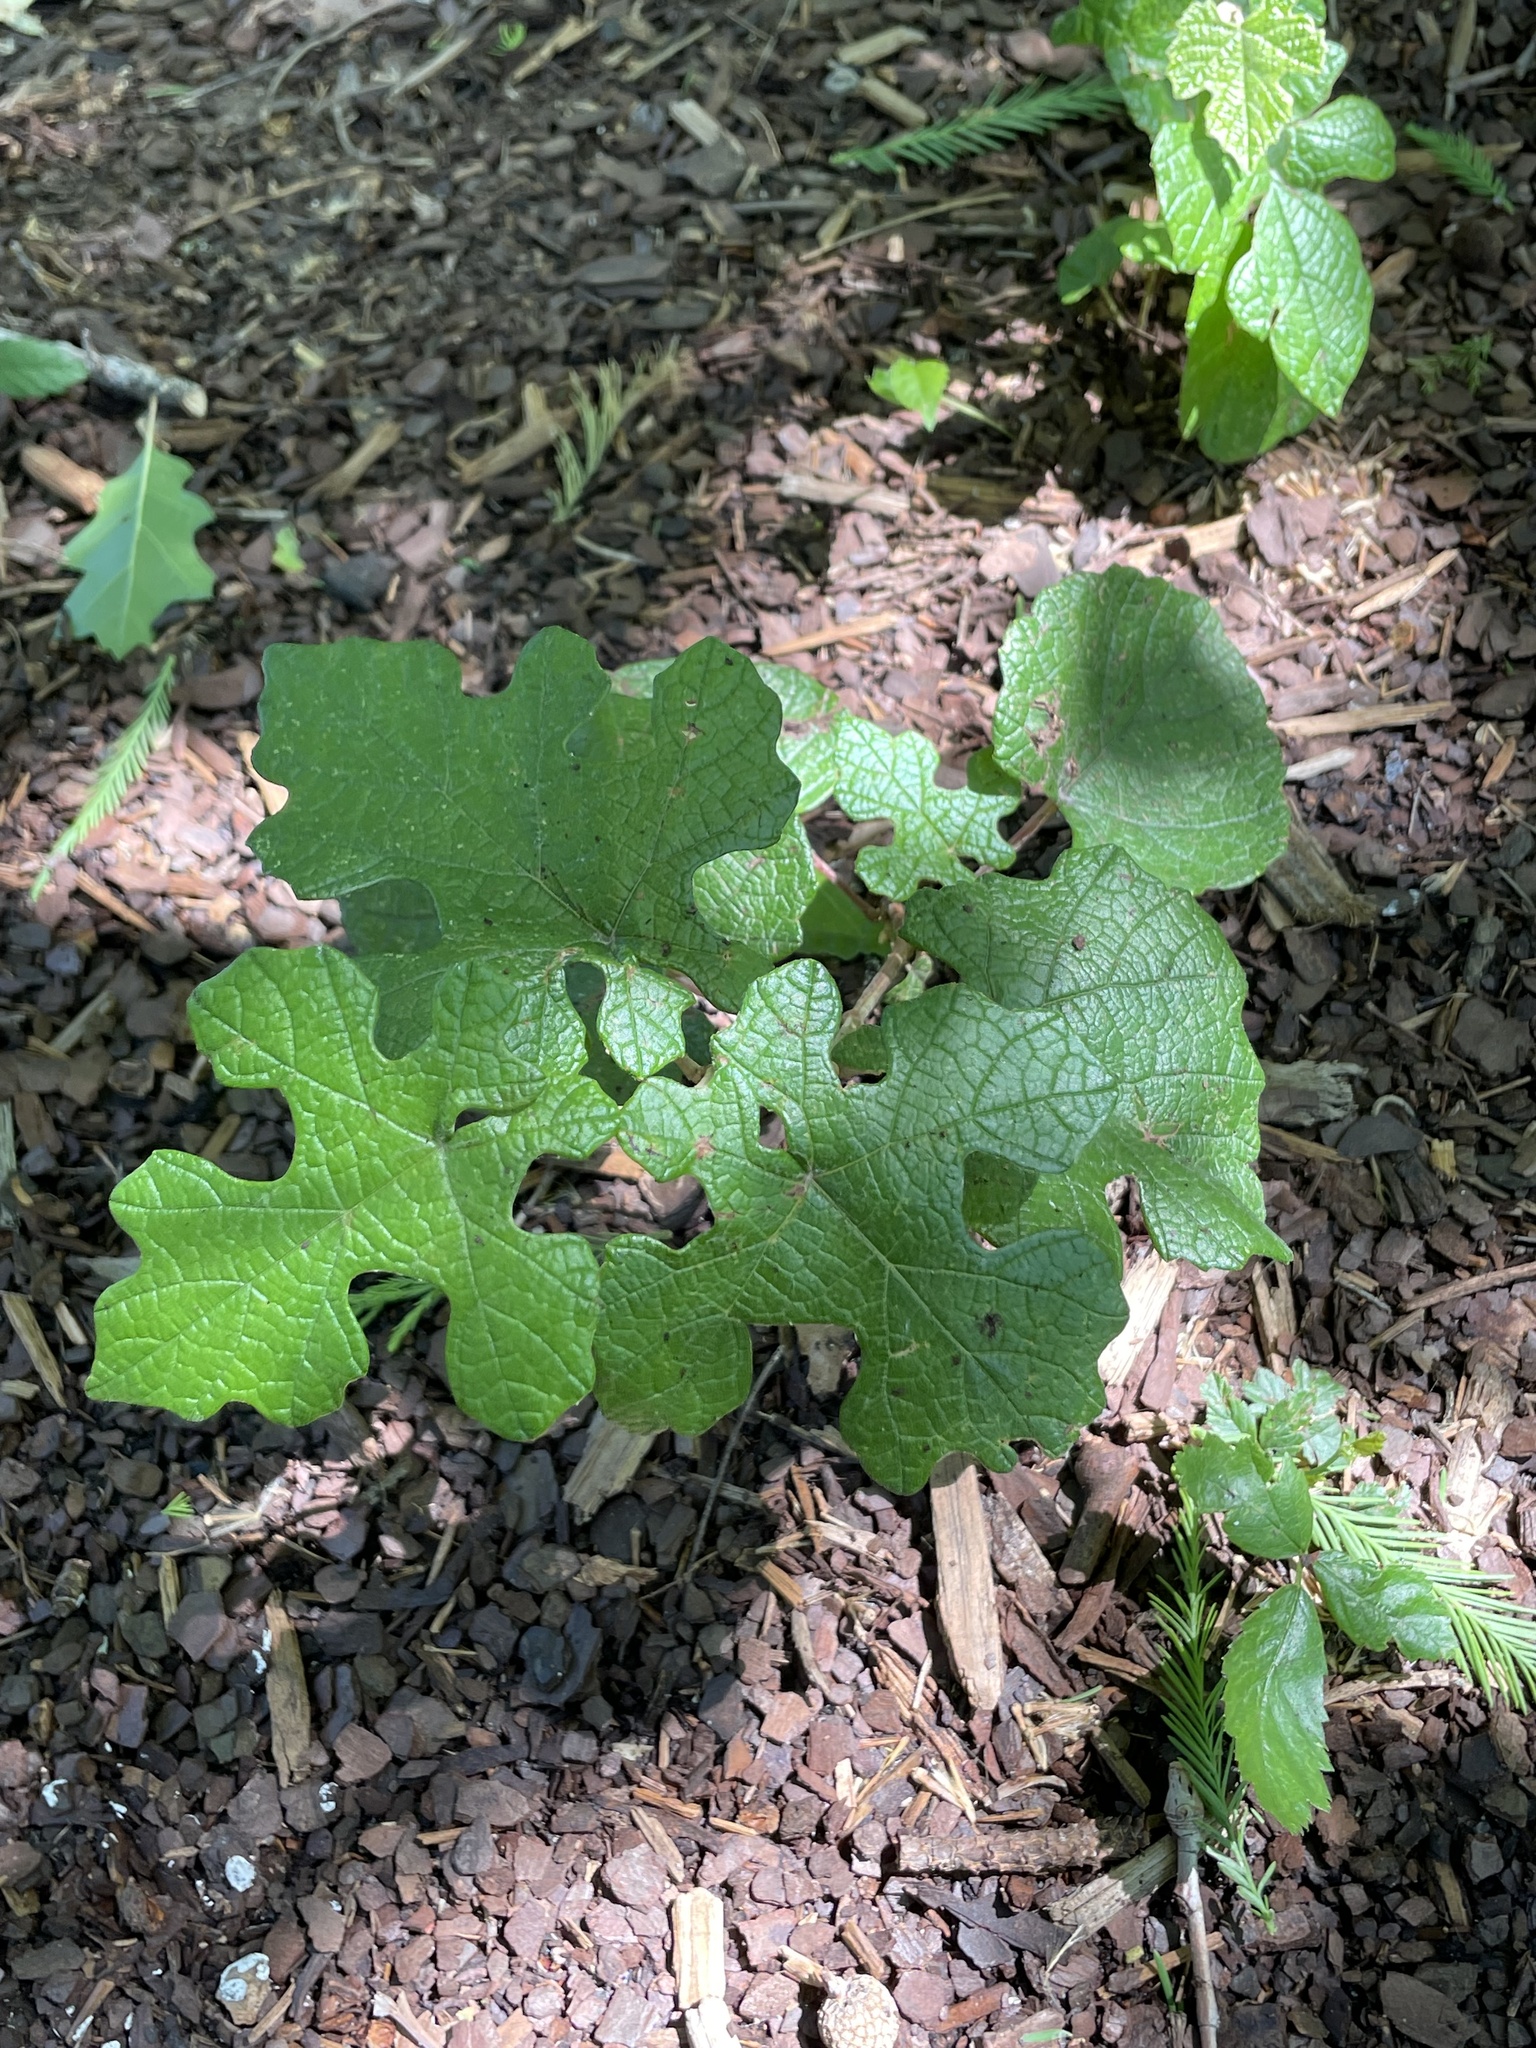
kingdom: Plantae
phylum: Tracheophyta
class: Magnoliopsida
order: Vitales
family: Vitaceae
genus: Vitis
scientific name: Vitis mustangensis
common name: Mustang grape
